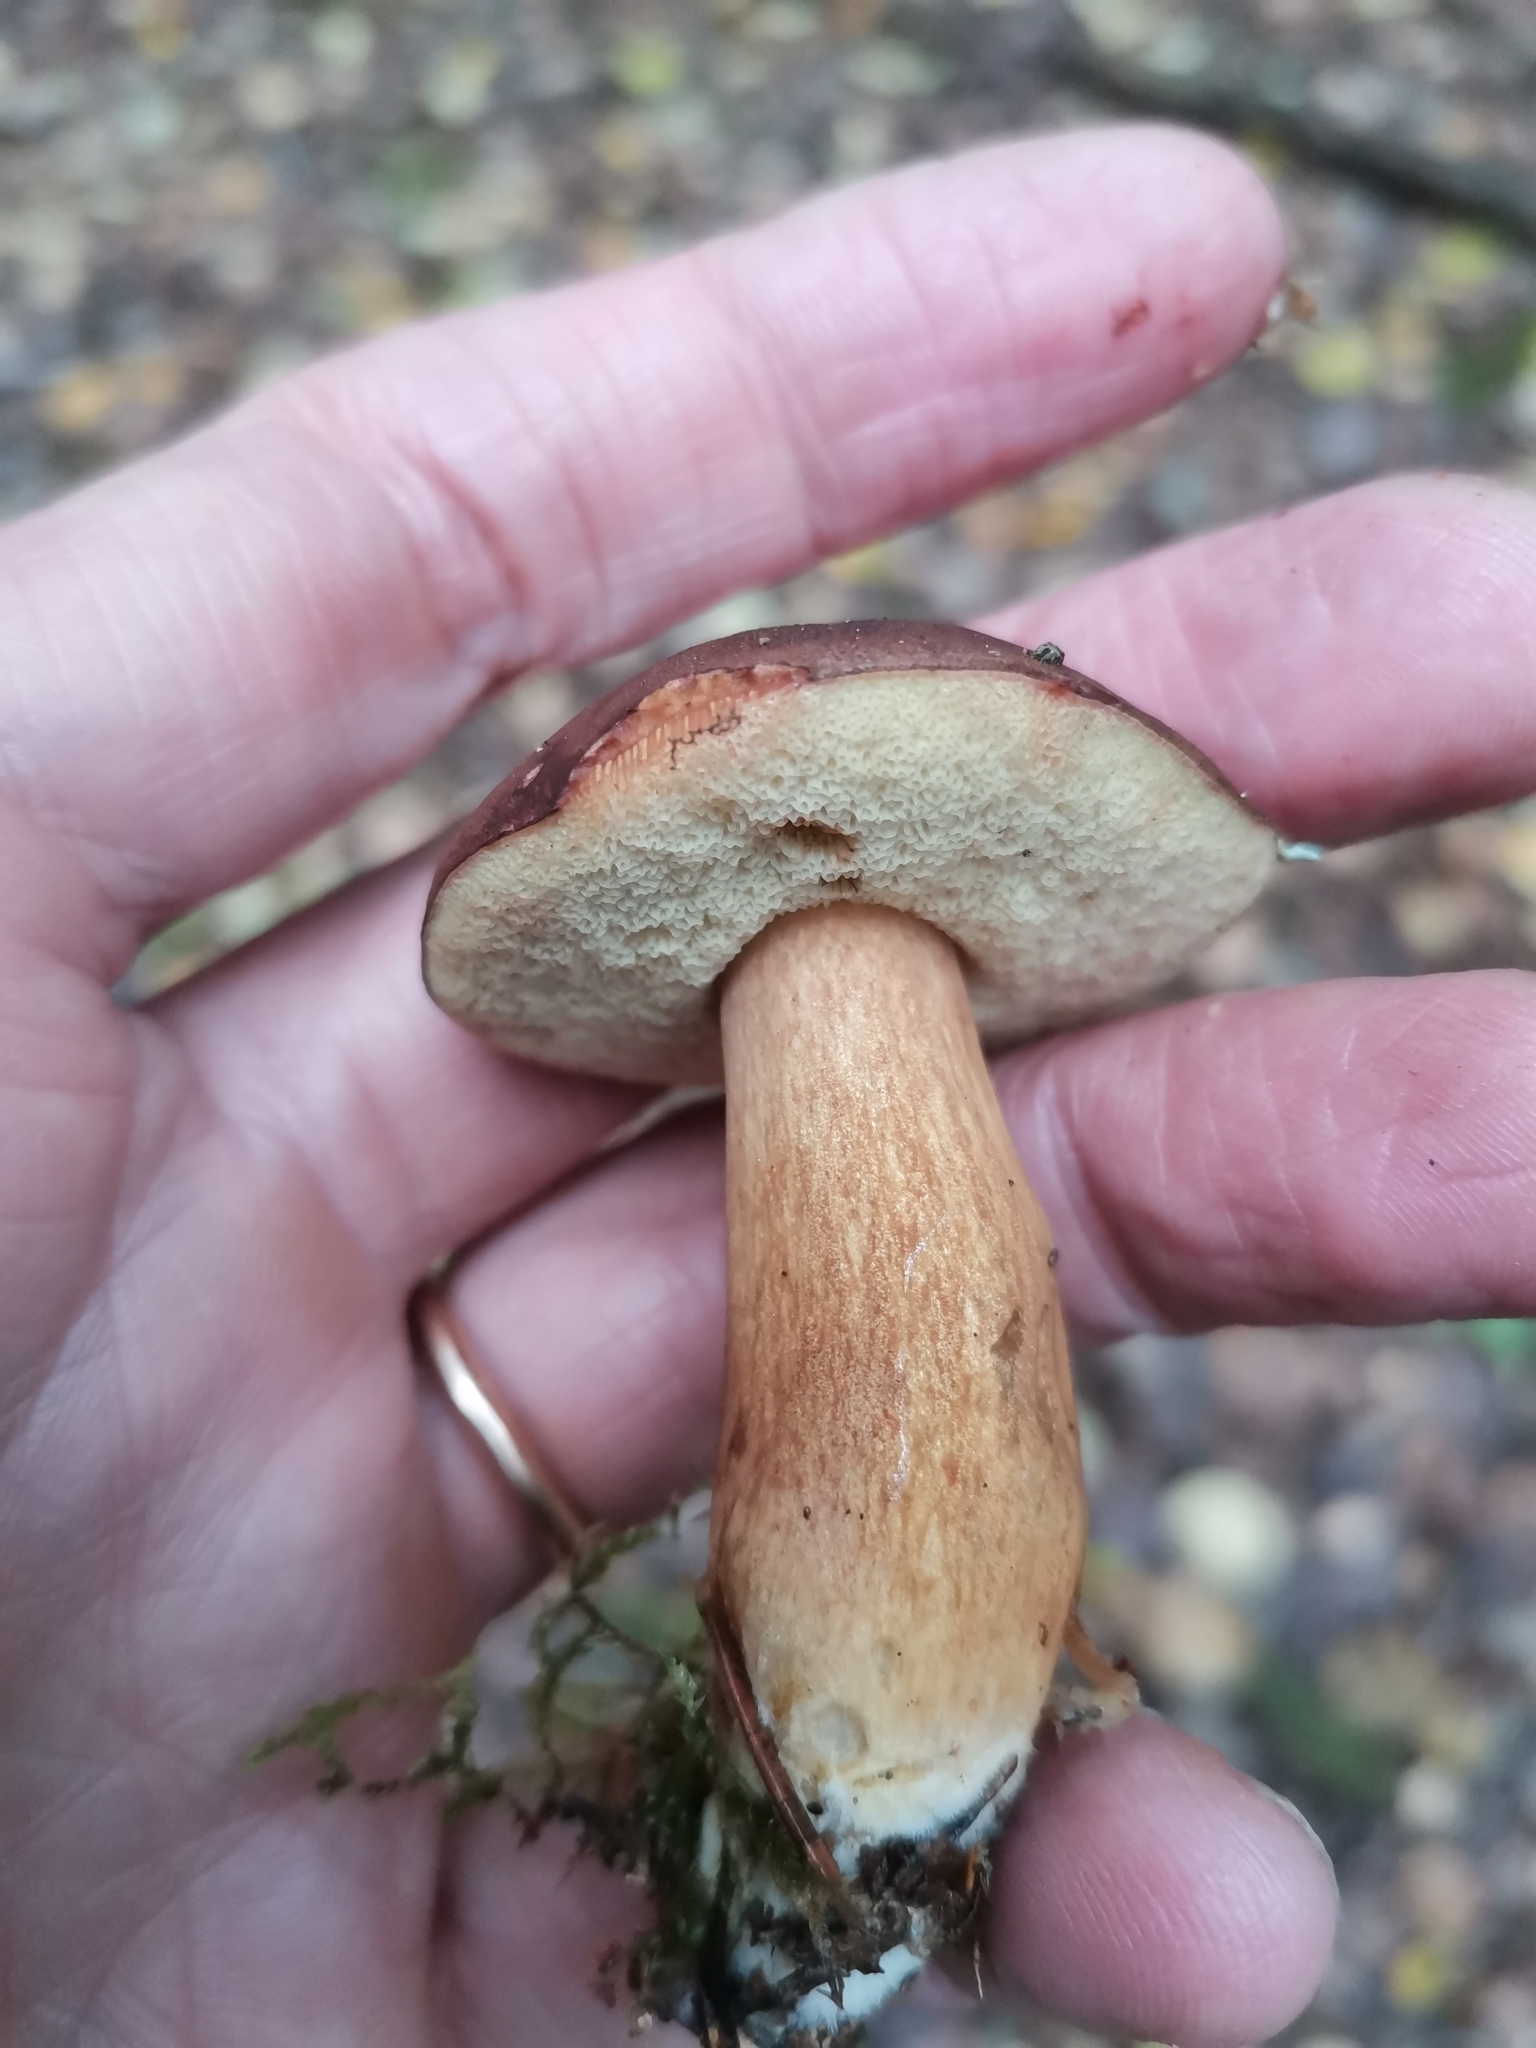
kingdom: Fungi
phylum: Basidiomycota
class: Agaricomycetes
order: Boletales
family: Boletaceae
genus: Imleria
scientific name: Imleria badia
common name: Bay bolete
